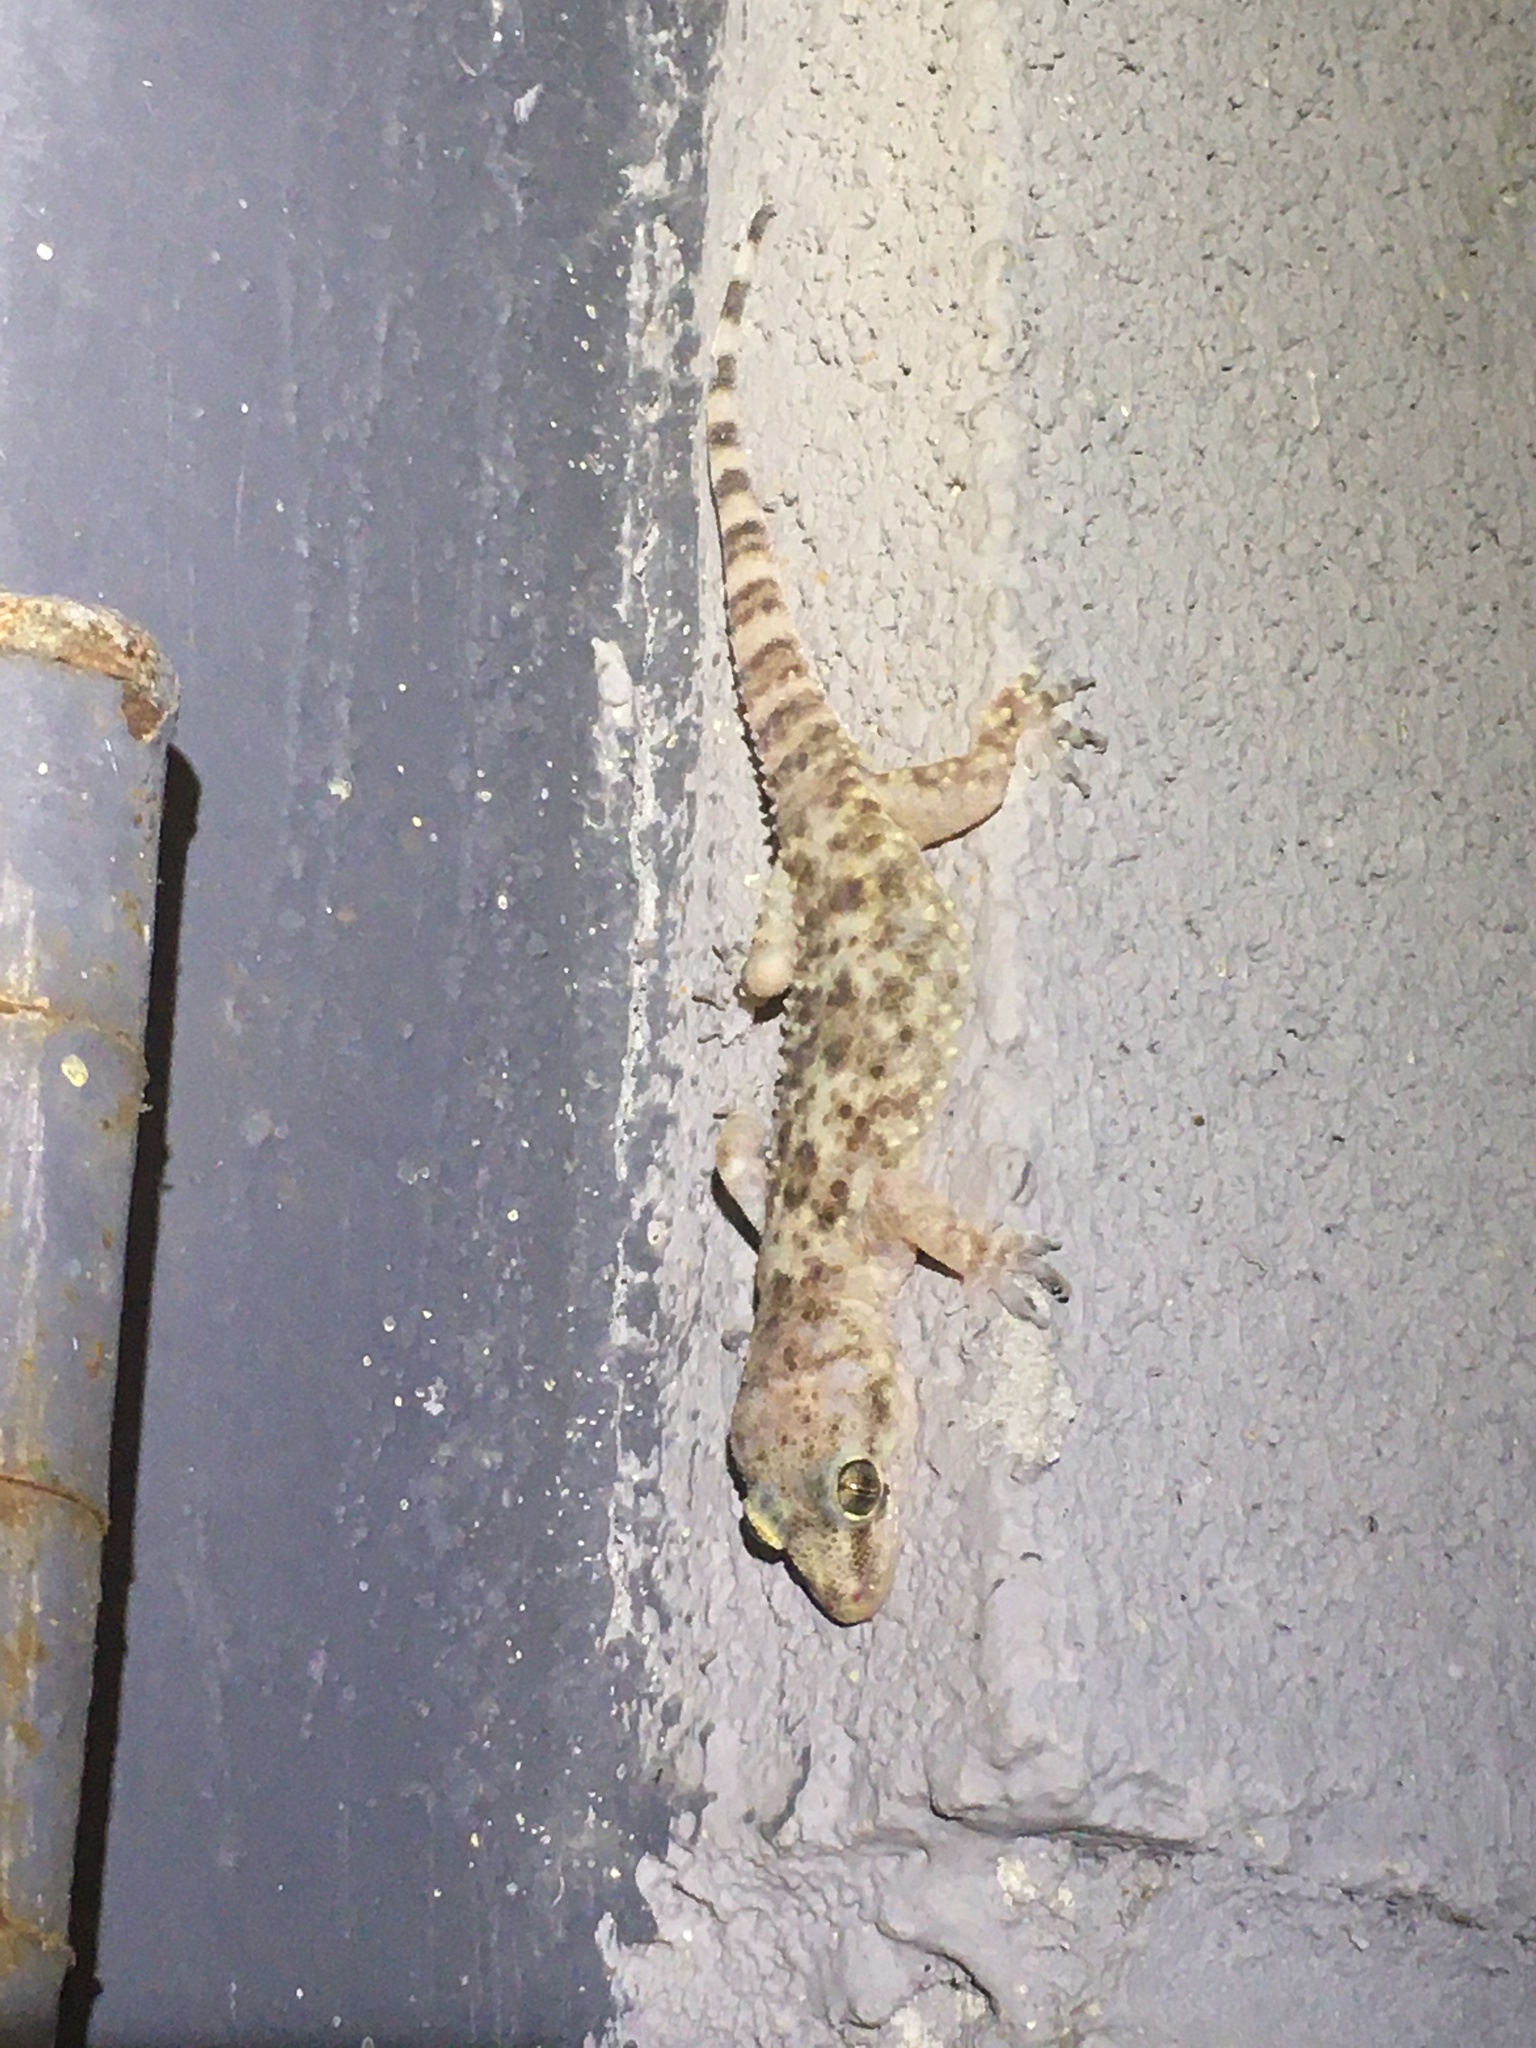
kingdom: Animalia
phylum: Chordata
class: Squamata
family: Gekkonidae
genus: Hemidactylus
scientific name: Hemidactylus turcicus
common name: Turkish gecko
